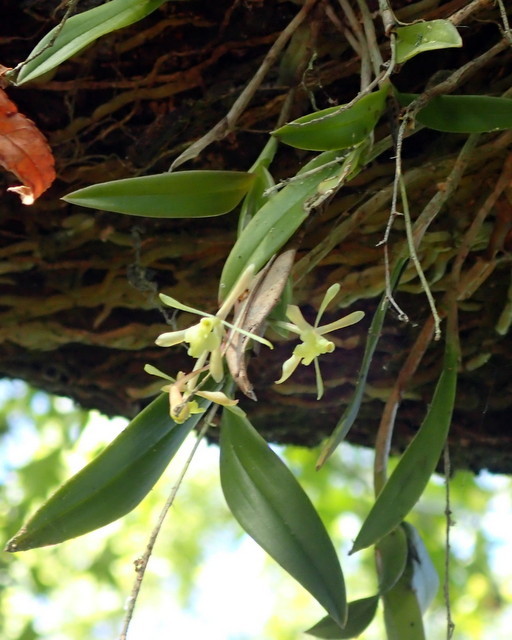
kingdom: Plantae
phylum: Tracheophyta
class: Liliopsida
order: Asparagales
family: Orchidaceae
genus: Epidendrum
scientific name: Epidendrum conopseum
